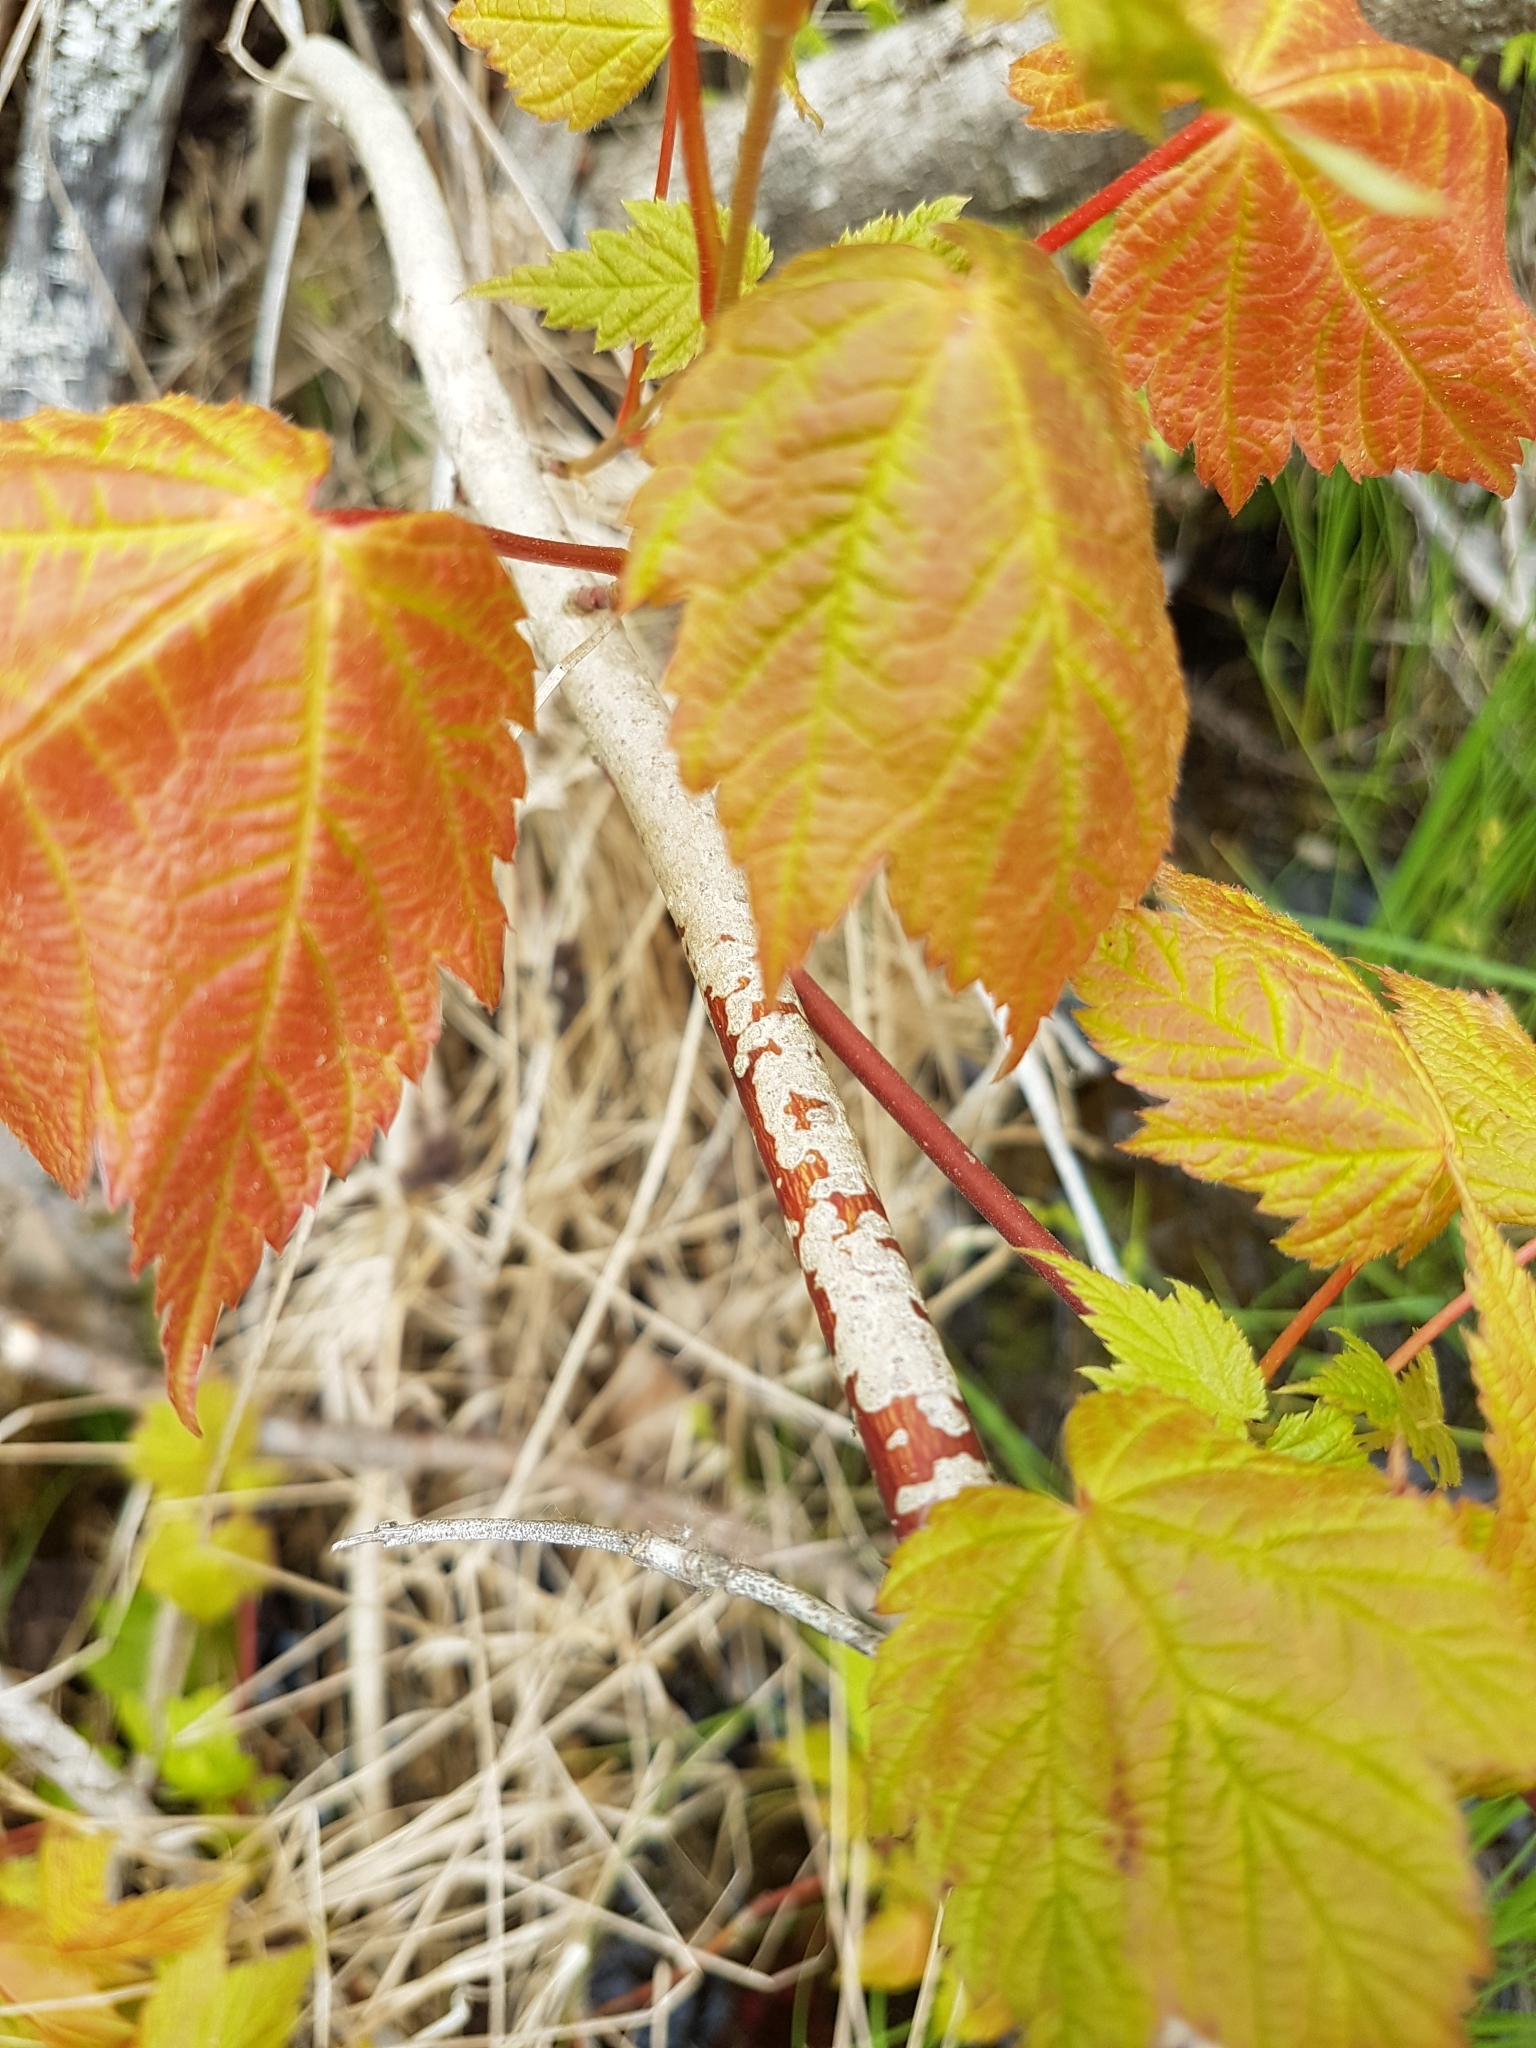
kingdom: Plantae
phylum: Tracheophyta
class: Magnoliopsida
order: Sapindales
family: Sapindaceae
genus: Acer
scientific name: Acer spicatum
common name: Mountain maple
